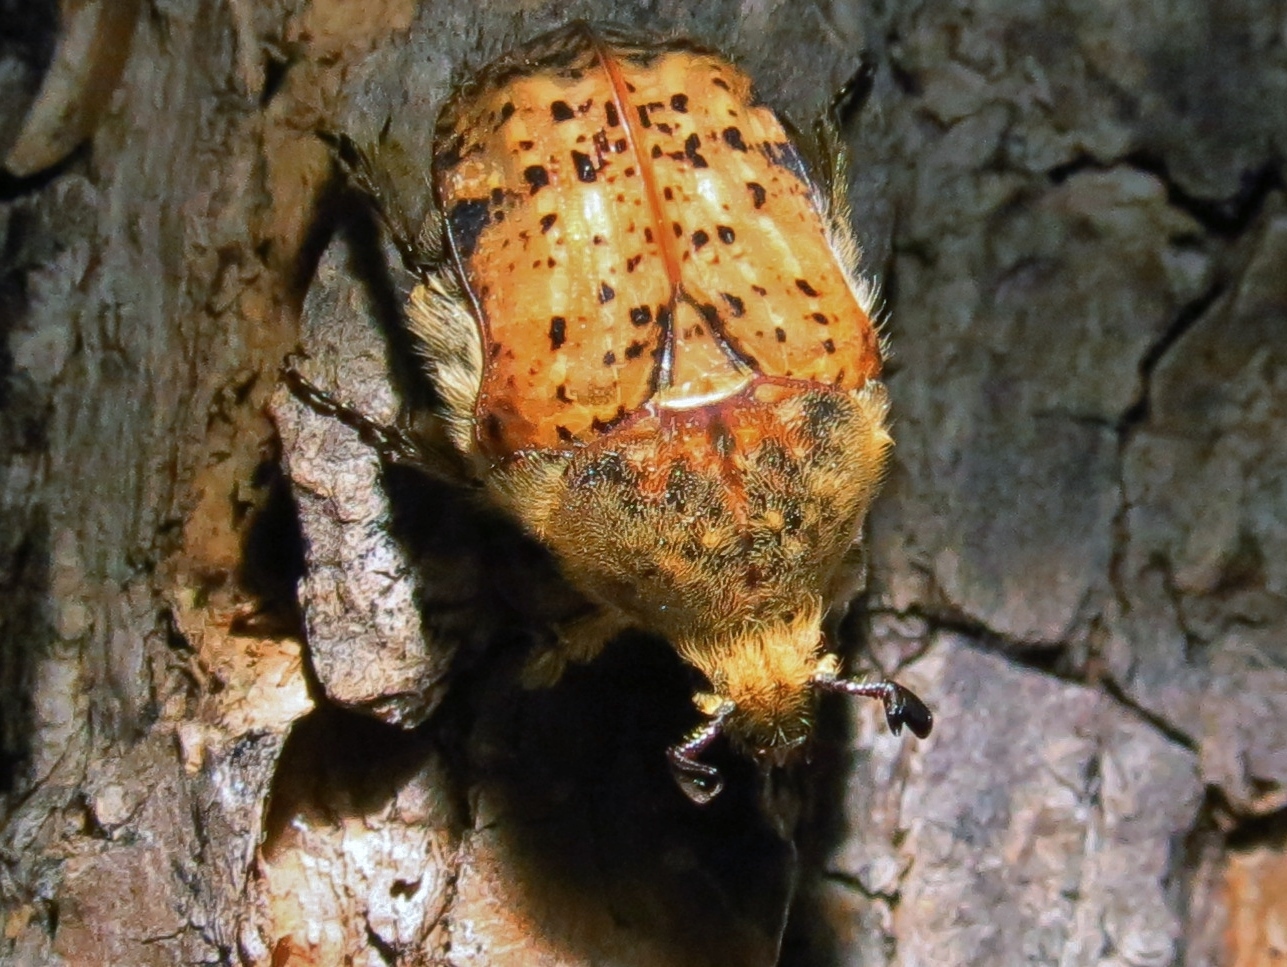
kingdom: Animalia
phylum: Arthropoda
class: Insecta
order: Coleoptera
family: Scarabaeidae
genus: Euphoria
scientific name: Euphoria inda
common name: Bumble flower beetle
